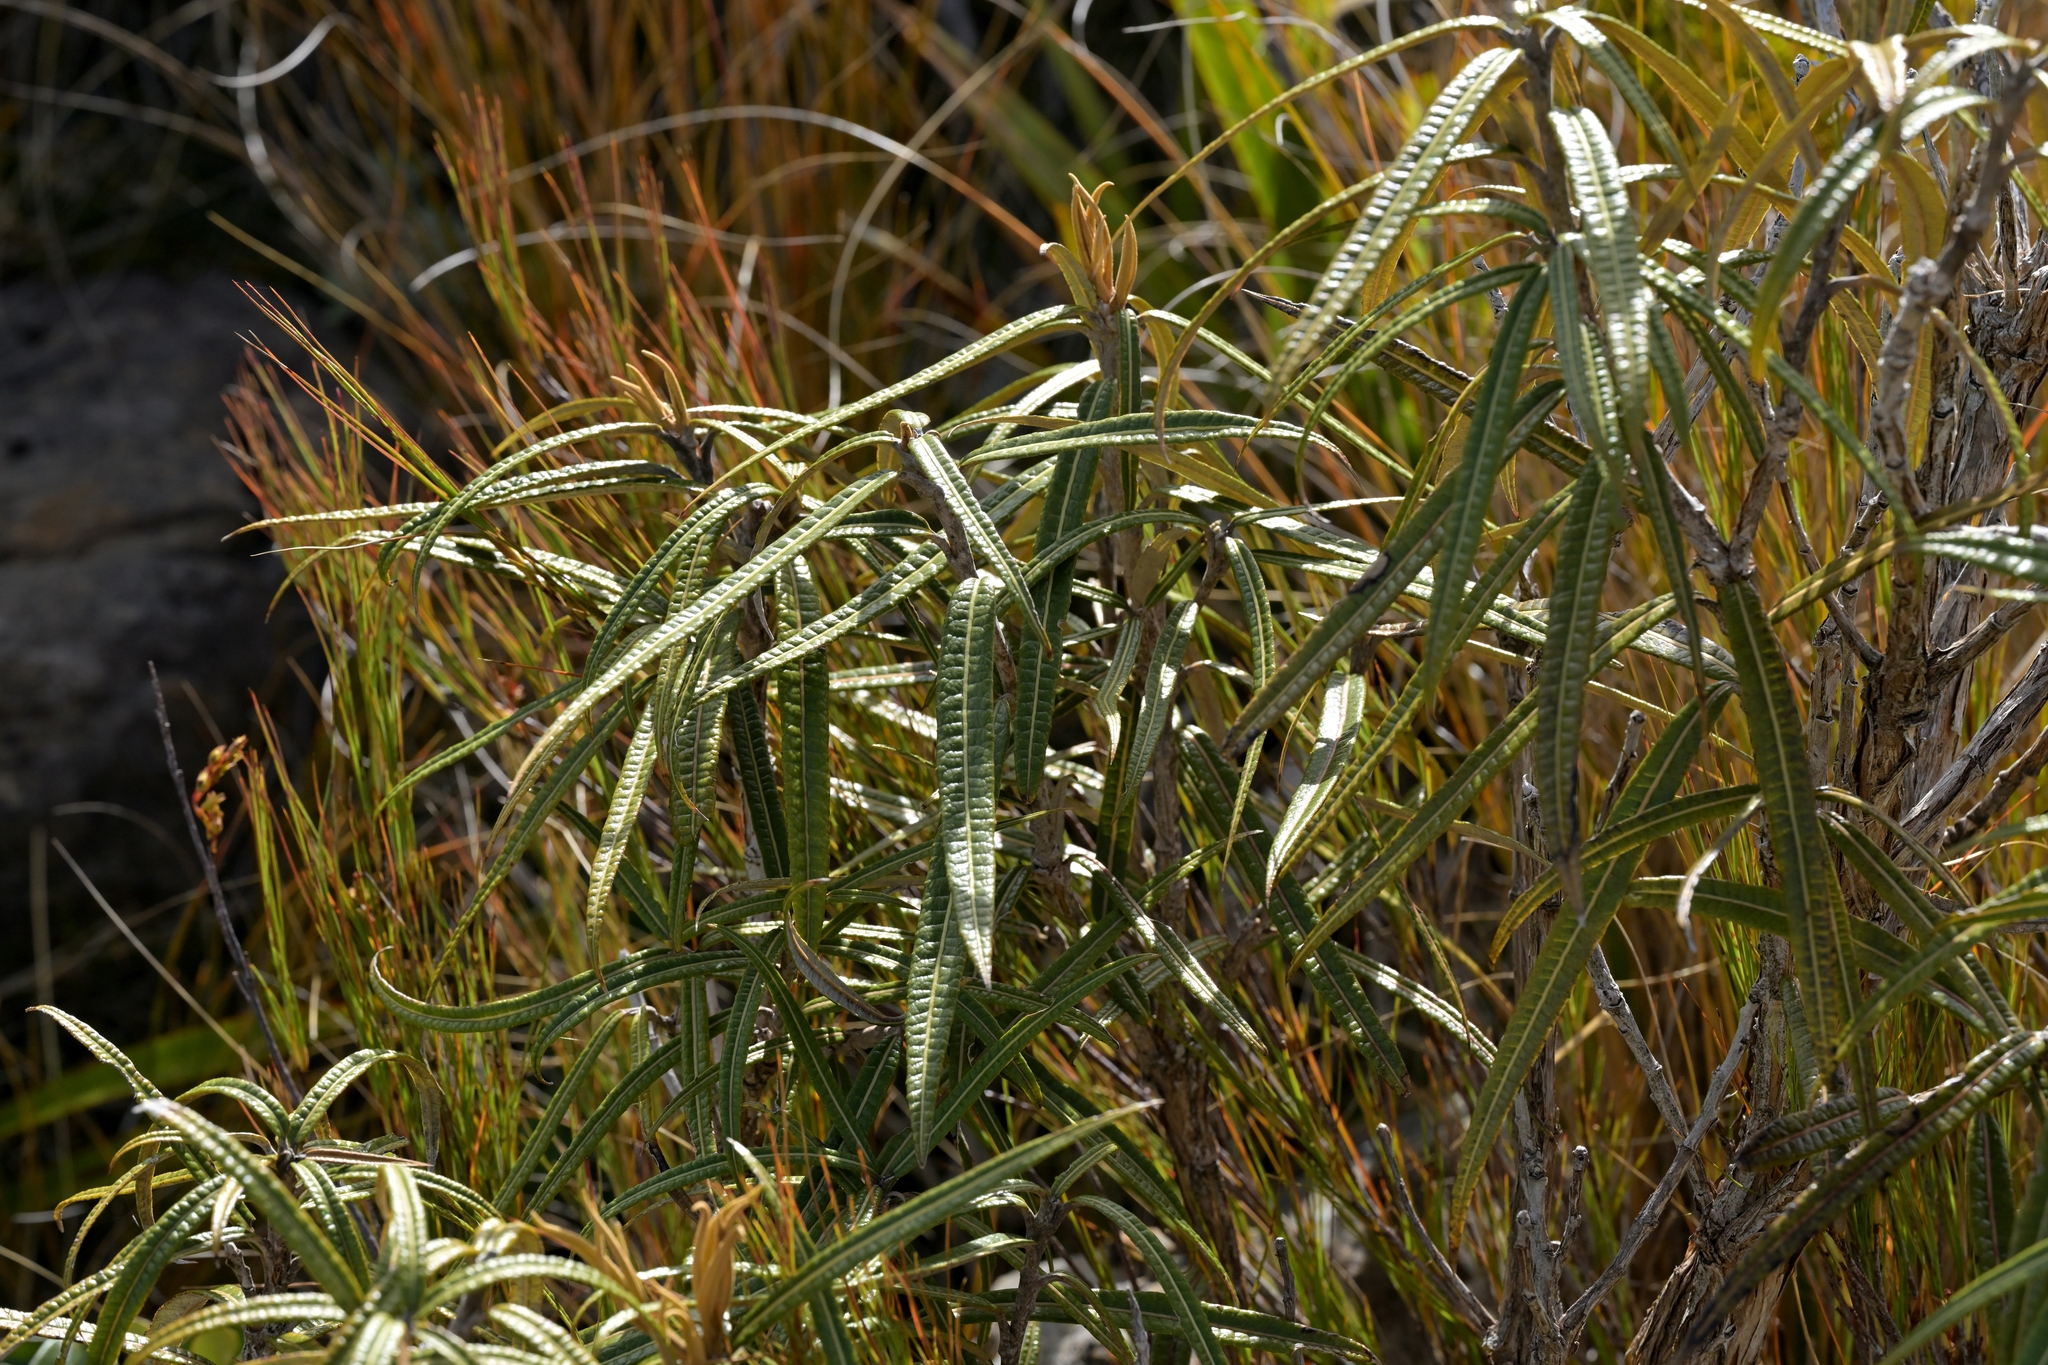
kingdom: Plantae
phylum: Tracheophyta
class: Magnoliopsida
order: Asterales
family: Asteraceae
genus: Olearia
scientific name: Olearia lacunosa
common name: Lancewood tree daisy
